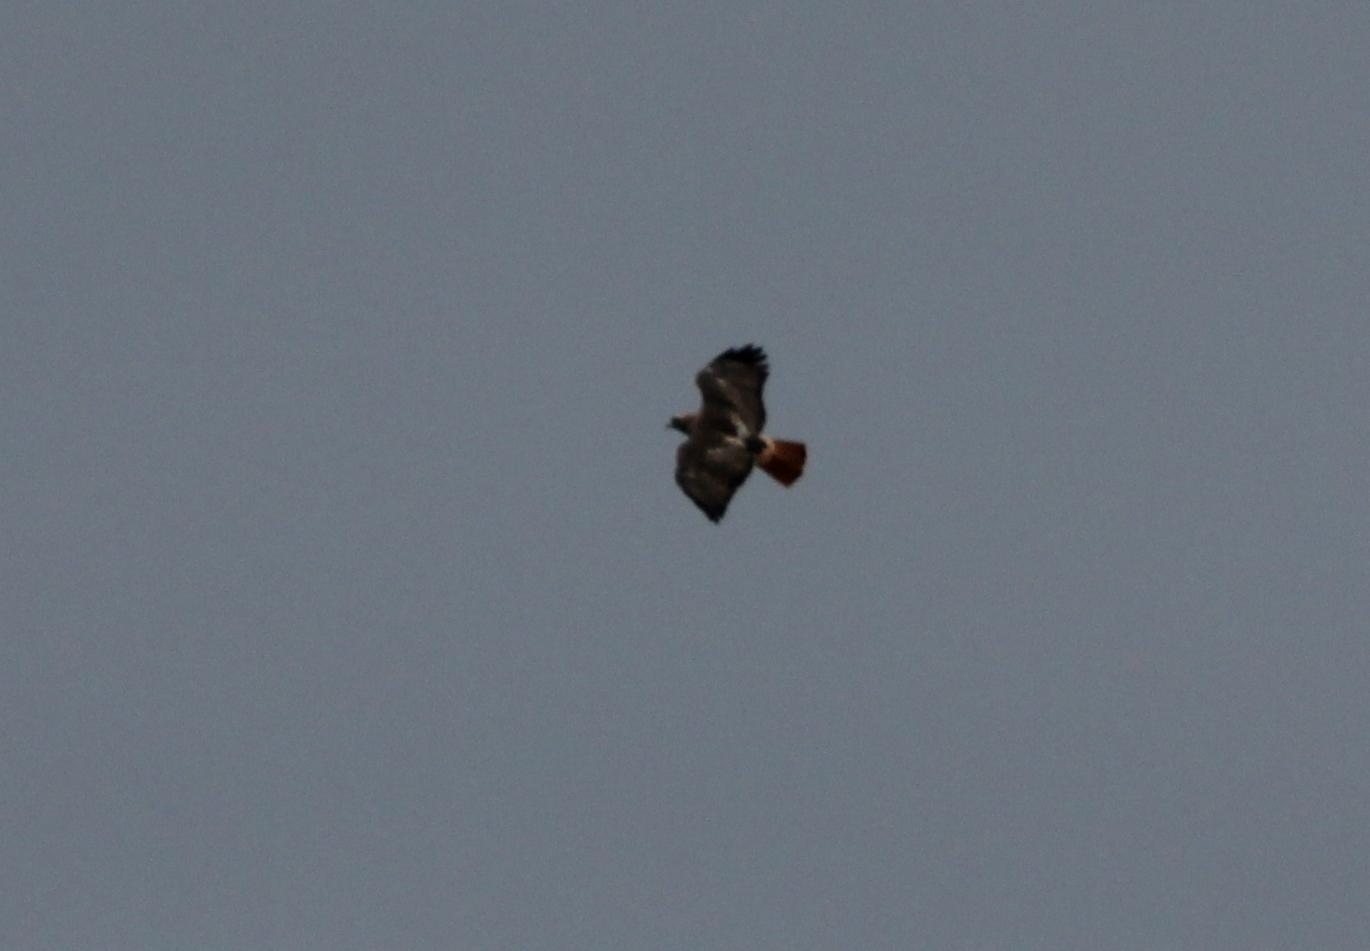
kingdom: Animalia
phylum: Chordata
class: Aves
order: Accipitriformes
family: Accipitridae
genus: Buteo
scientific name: Buteo jamaicensis
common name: Red-tailed hawk
